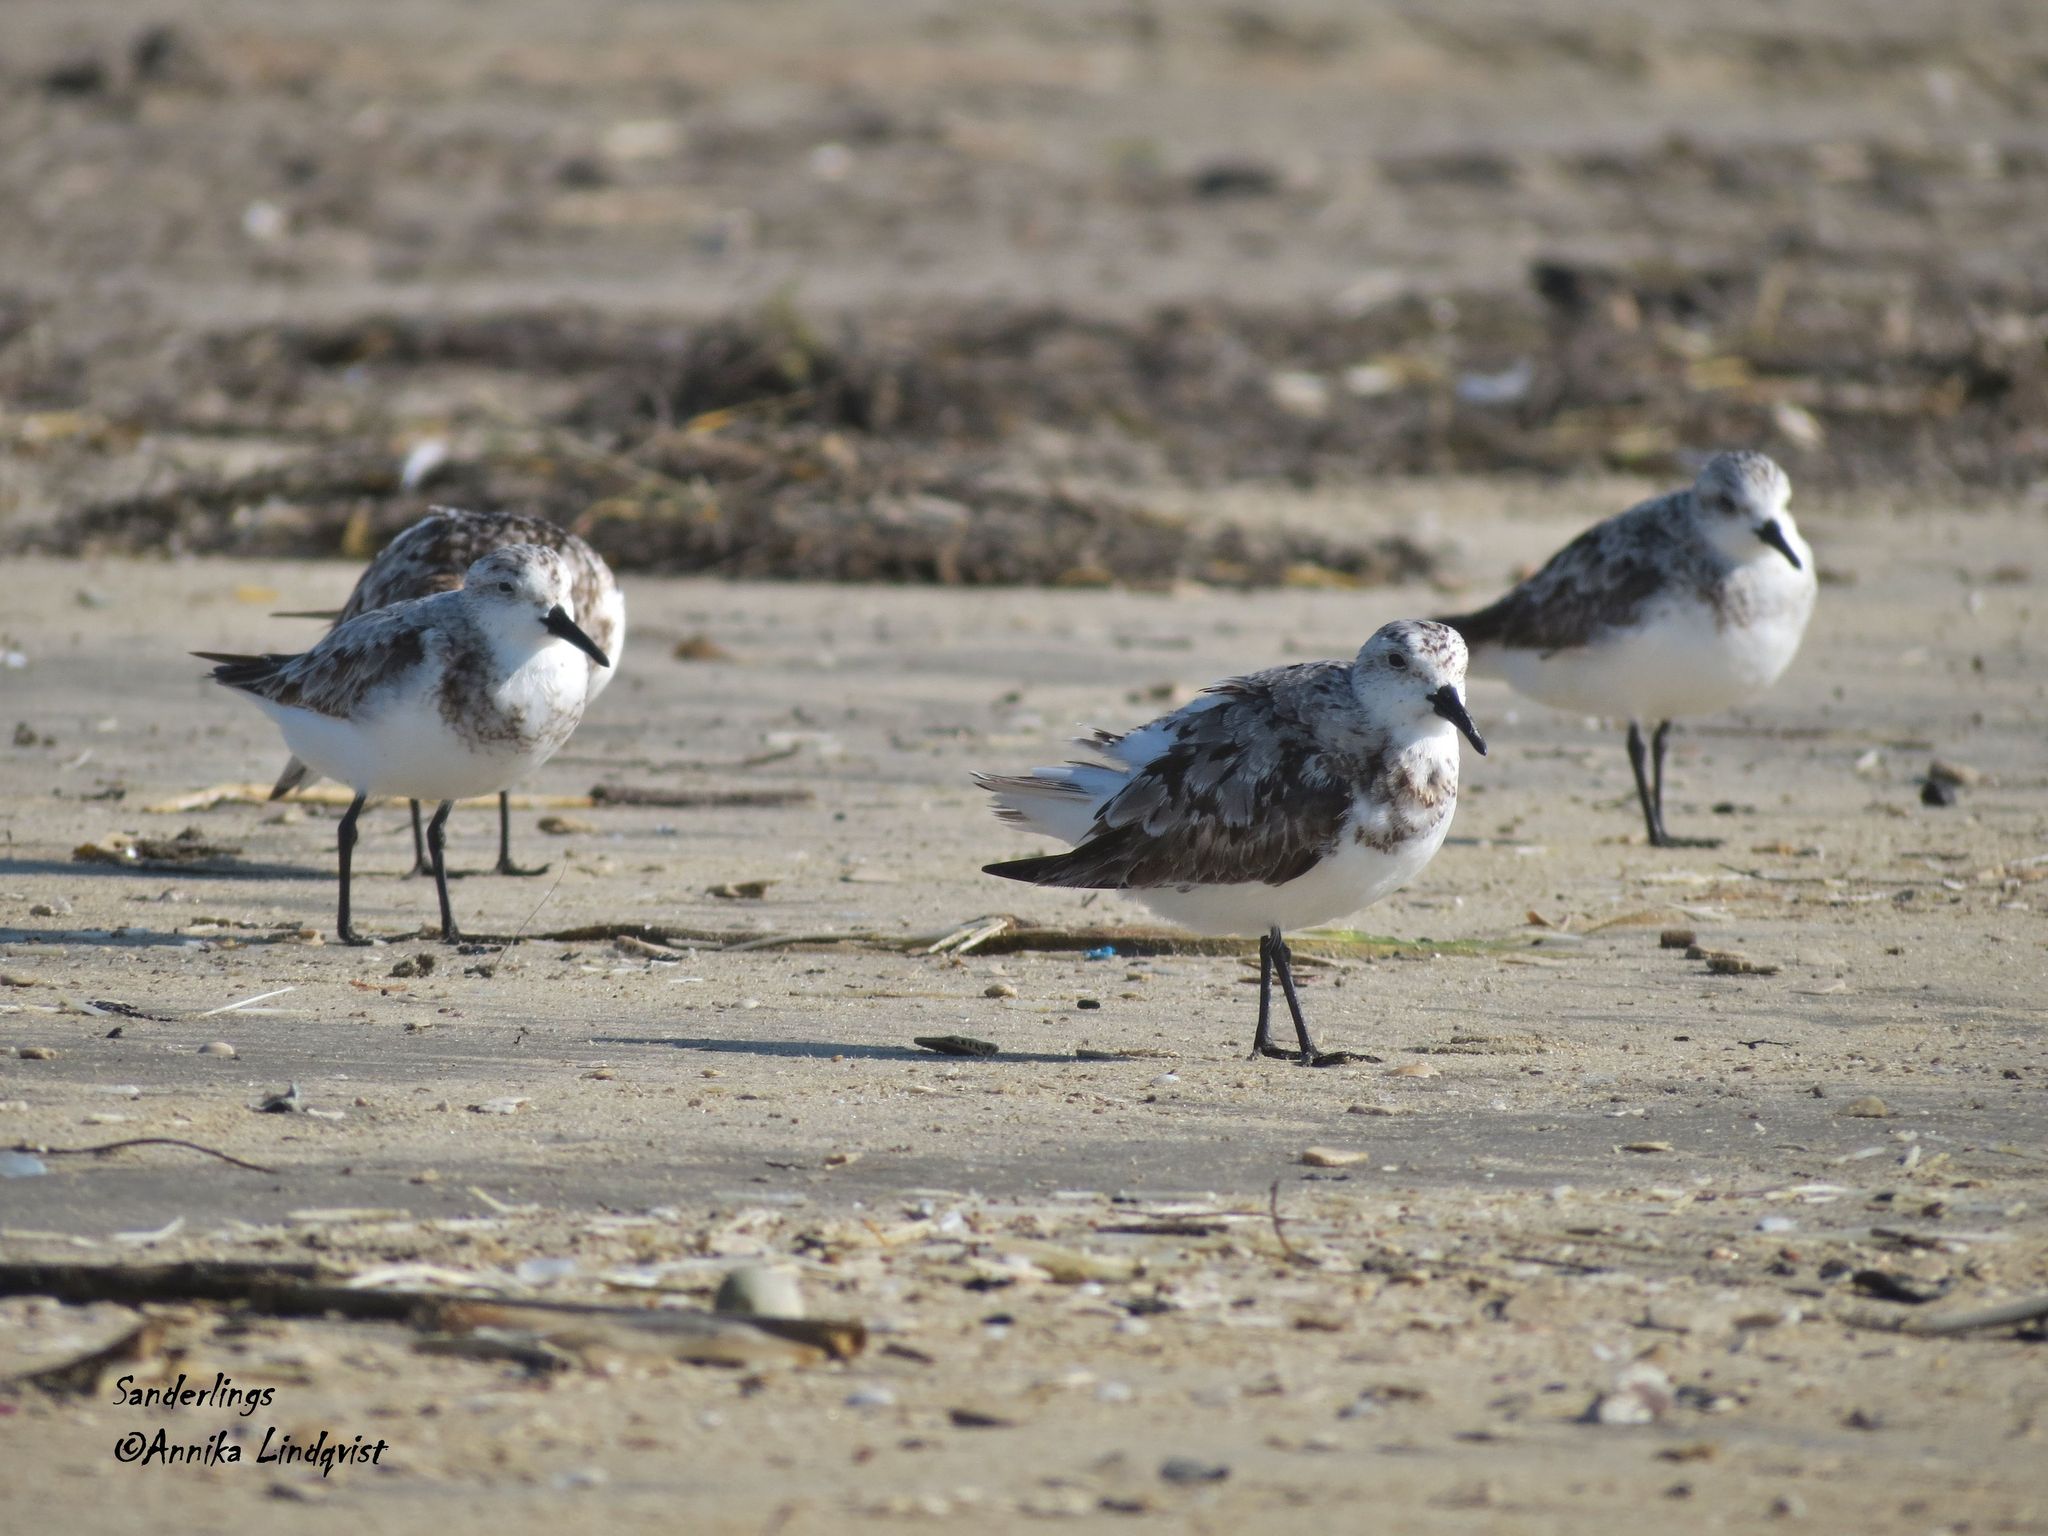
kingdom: Animalia
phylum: Chordata
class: Aves
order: Charadriiformes
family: Scolopacidae
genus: Calidris
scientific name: Calidris alba
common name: Sanderling
